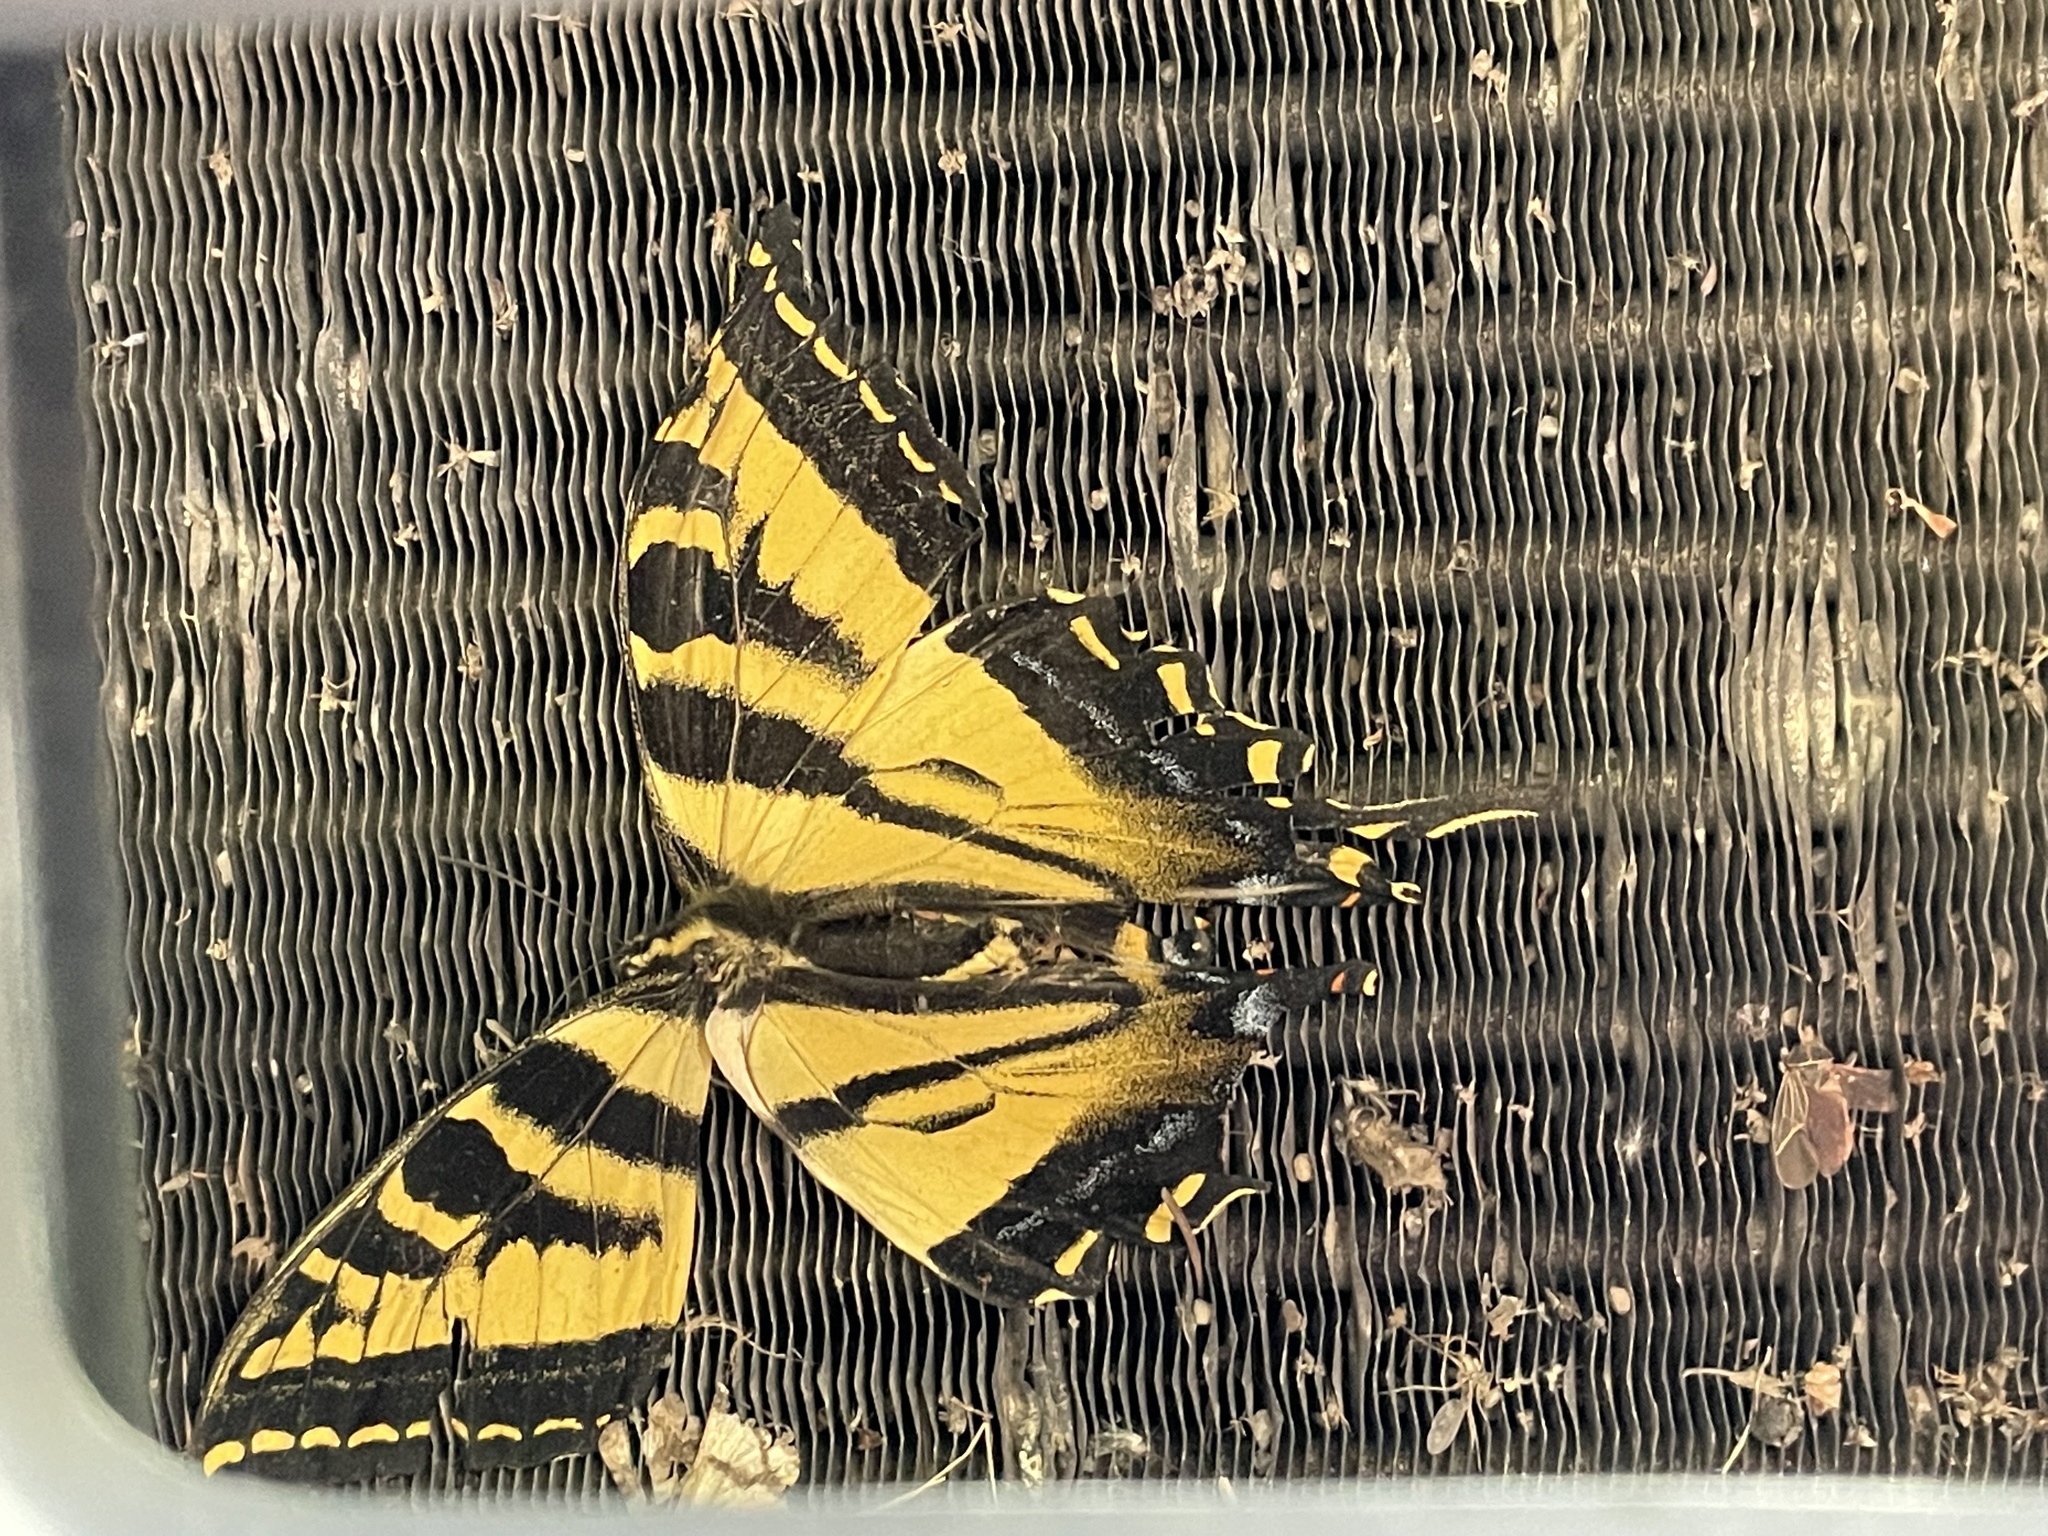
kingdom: Animalia
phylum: Arthropoda
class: Insecta
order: Lepidoptera
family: Papilionidae
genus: Papilio
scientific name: Papilio rutulus
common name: Western tiger swallowtail
